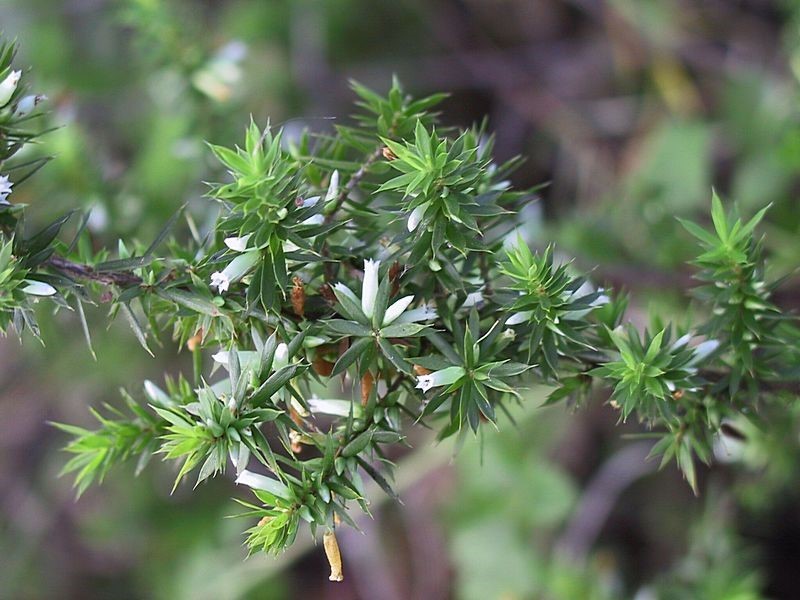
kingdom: Plantae
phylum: Tracheophyta
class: Magnoliopsida
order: Ericales
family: Ericaceae
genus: Styphelia
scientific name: Styphelia sieberi
